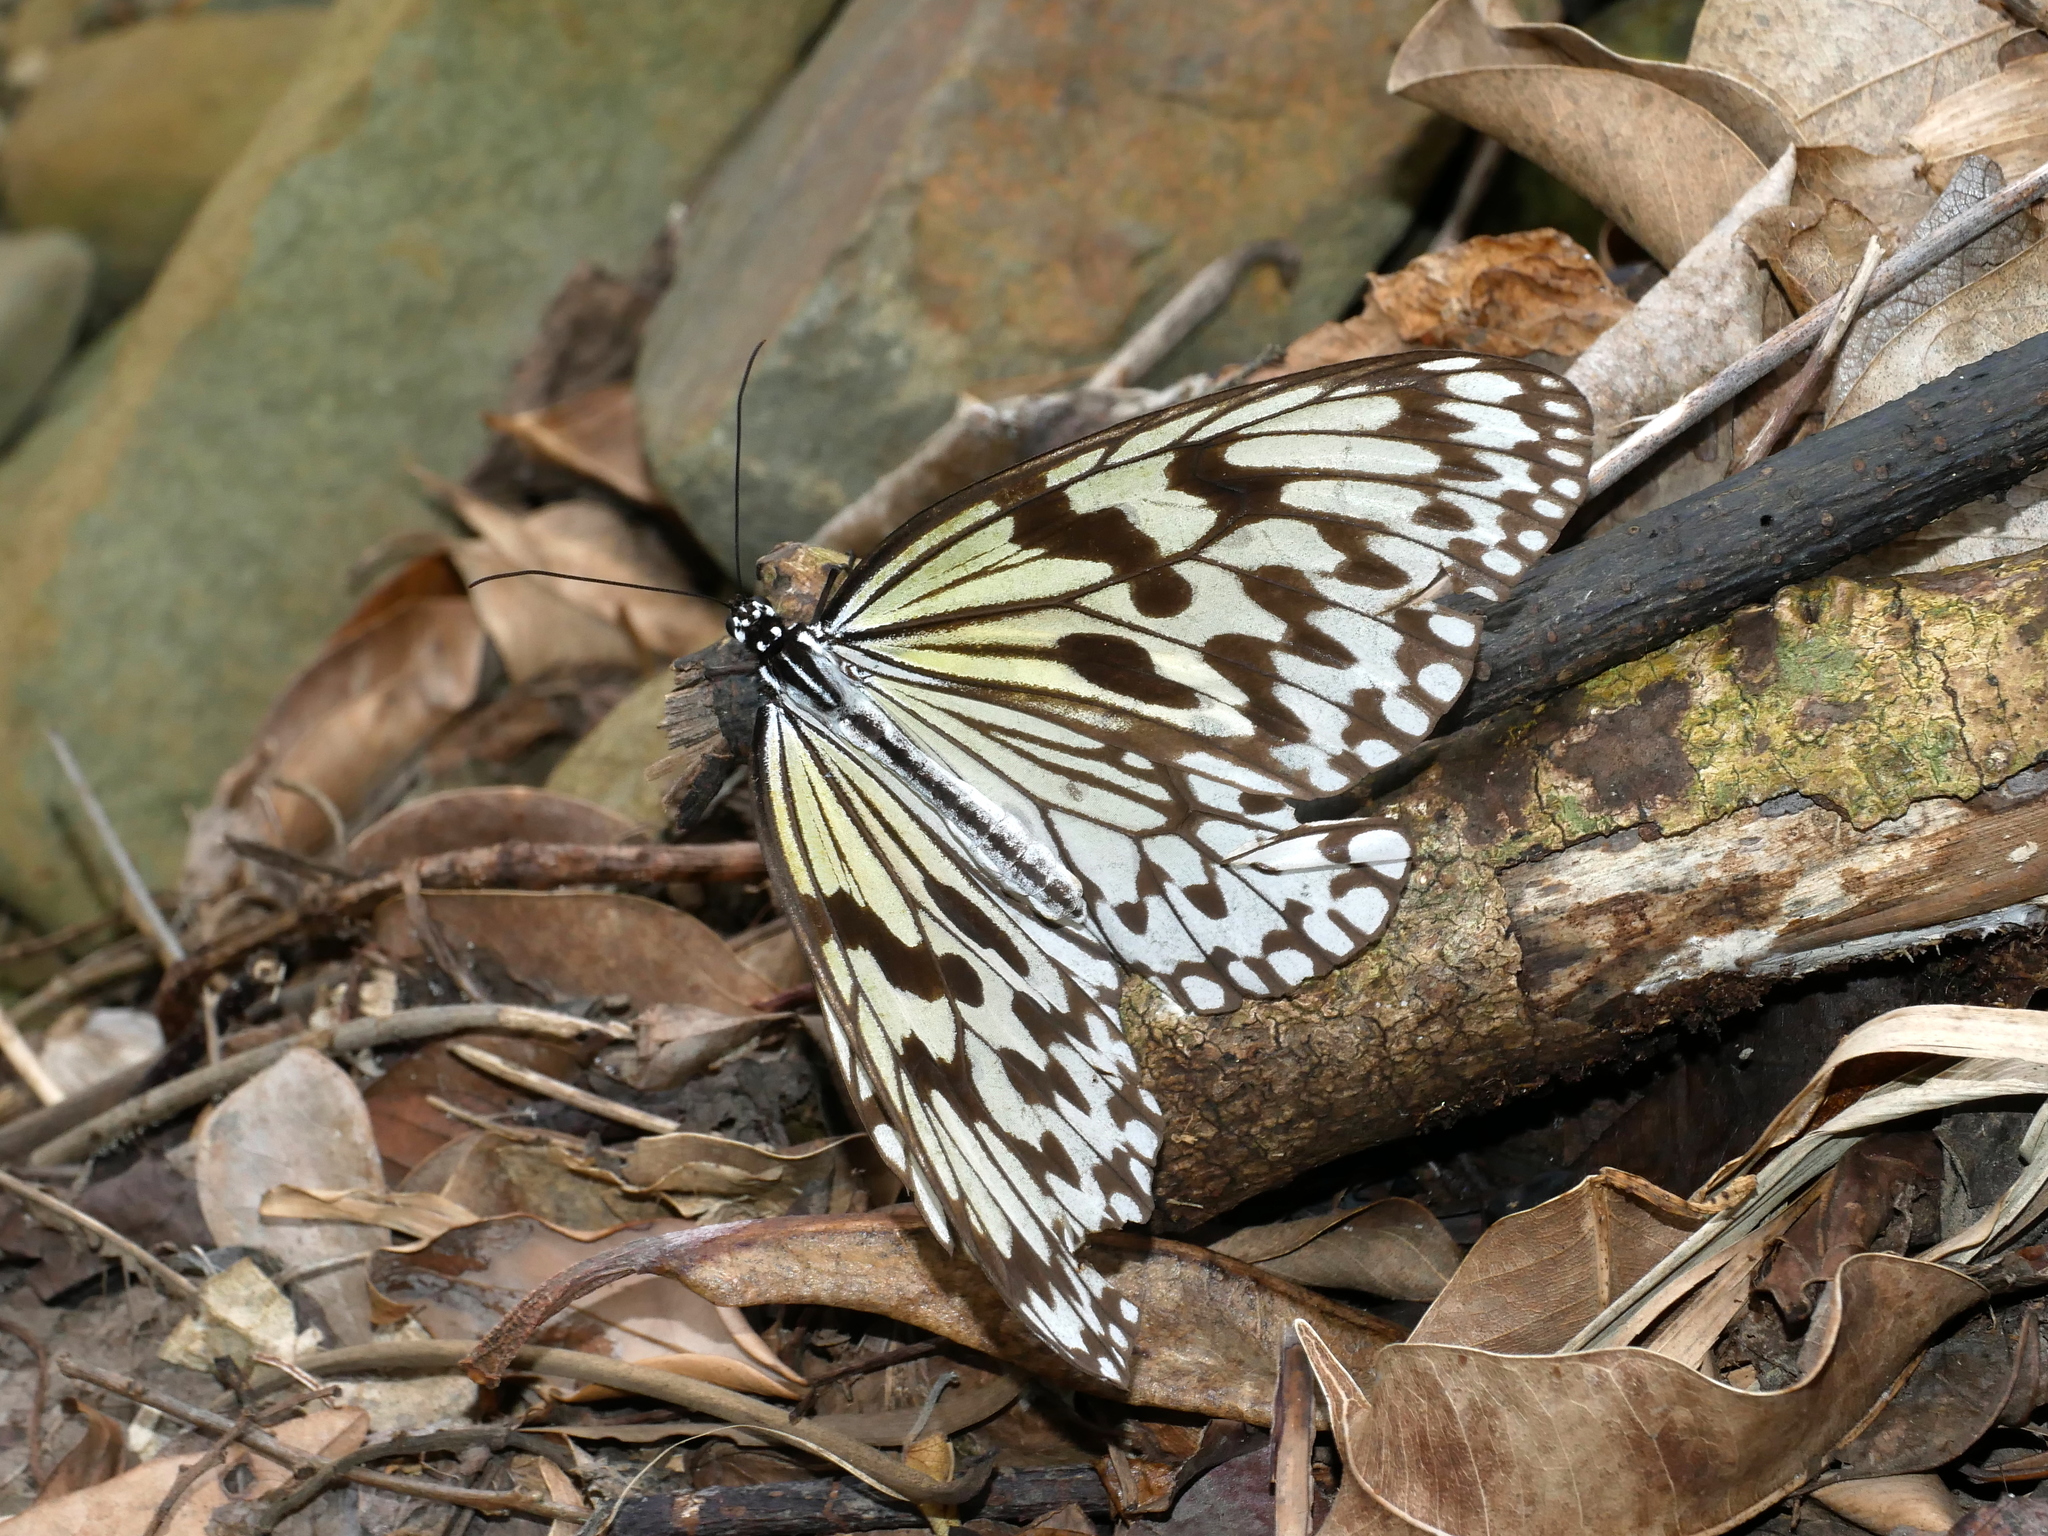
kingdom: Animalia
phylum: Arthropoda
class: Insecta
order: Lepidoptera
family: Nymphalidae
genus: Idea
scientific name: Idea leuconoe
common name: Rice paper butterfly
